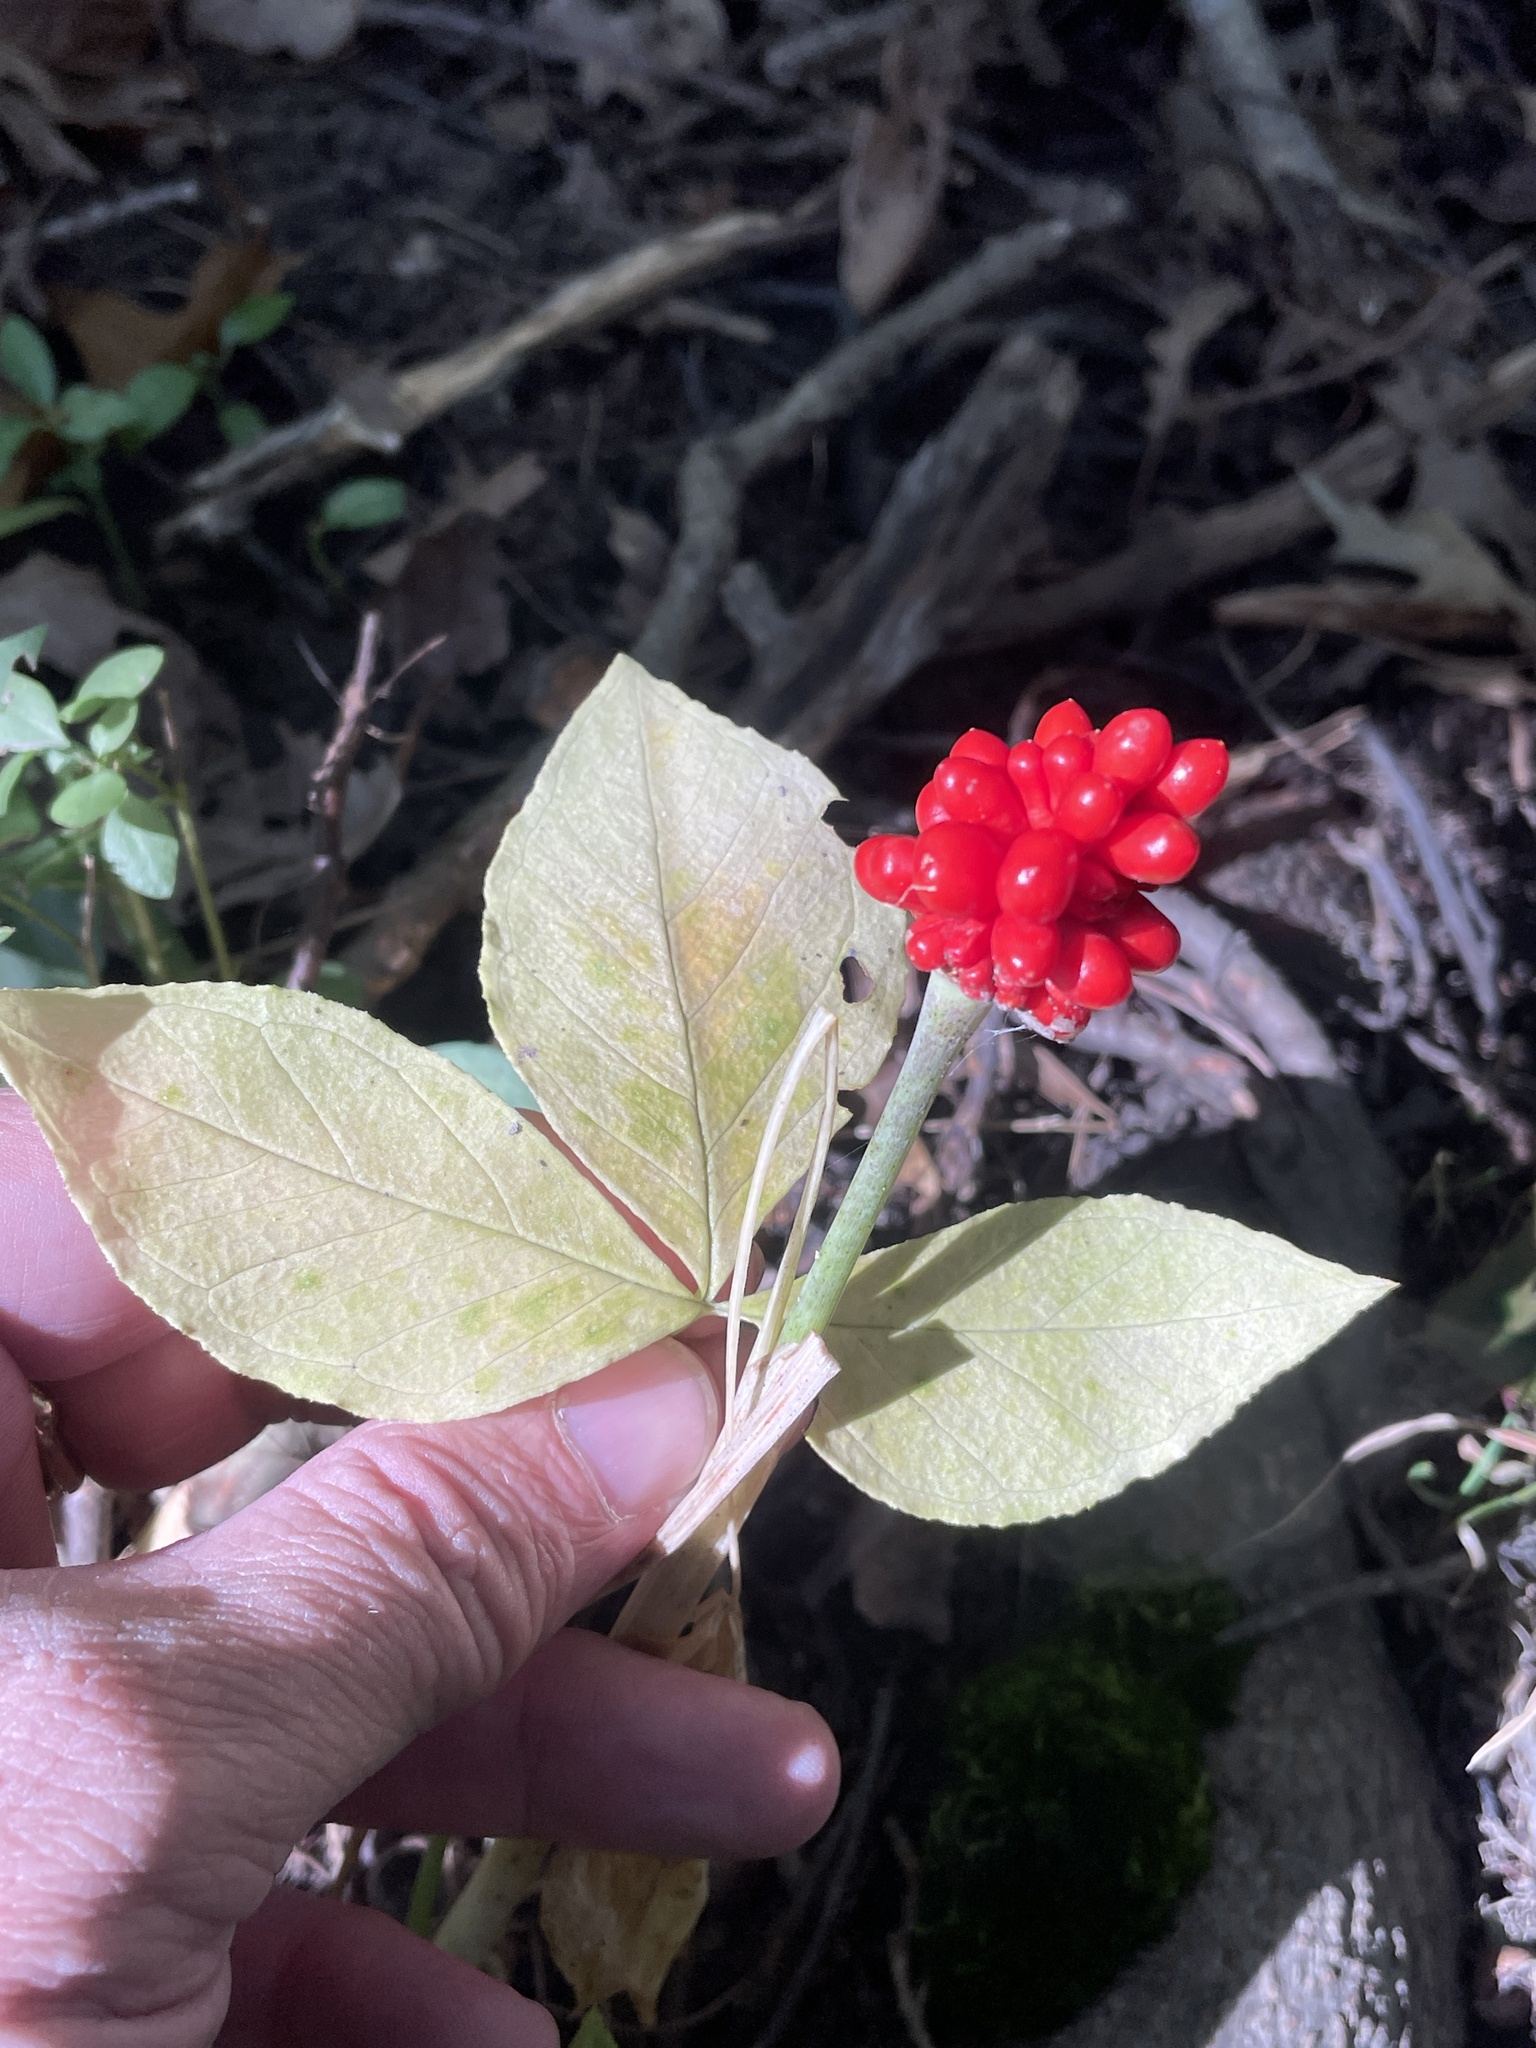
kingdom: Plantae
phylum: Tracheophyta
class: Liliopsida
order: Alismatales
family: Araceae
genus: Arisaema
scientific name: Arisaema triphyllum
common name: Jack-in-the-pulpit
